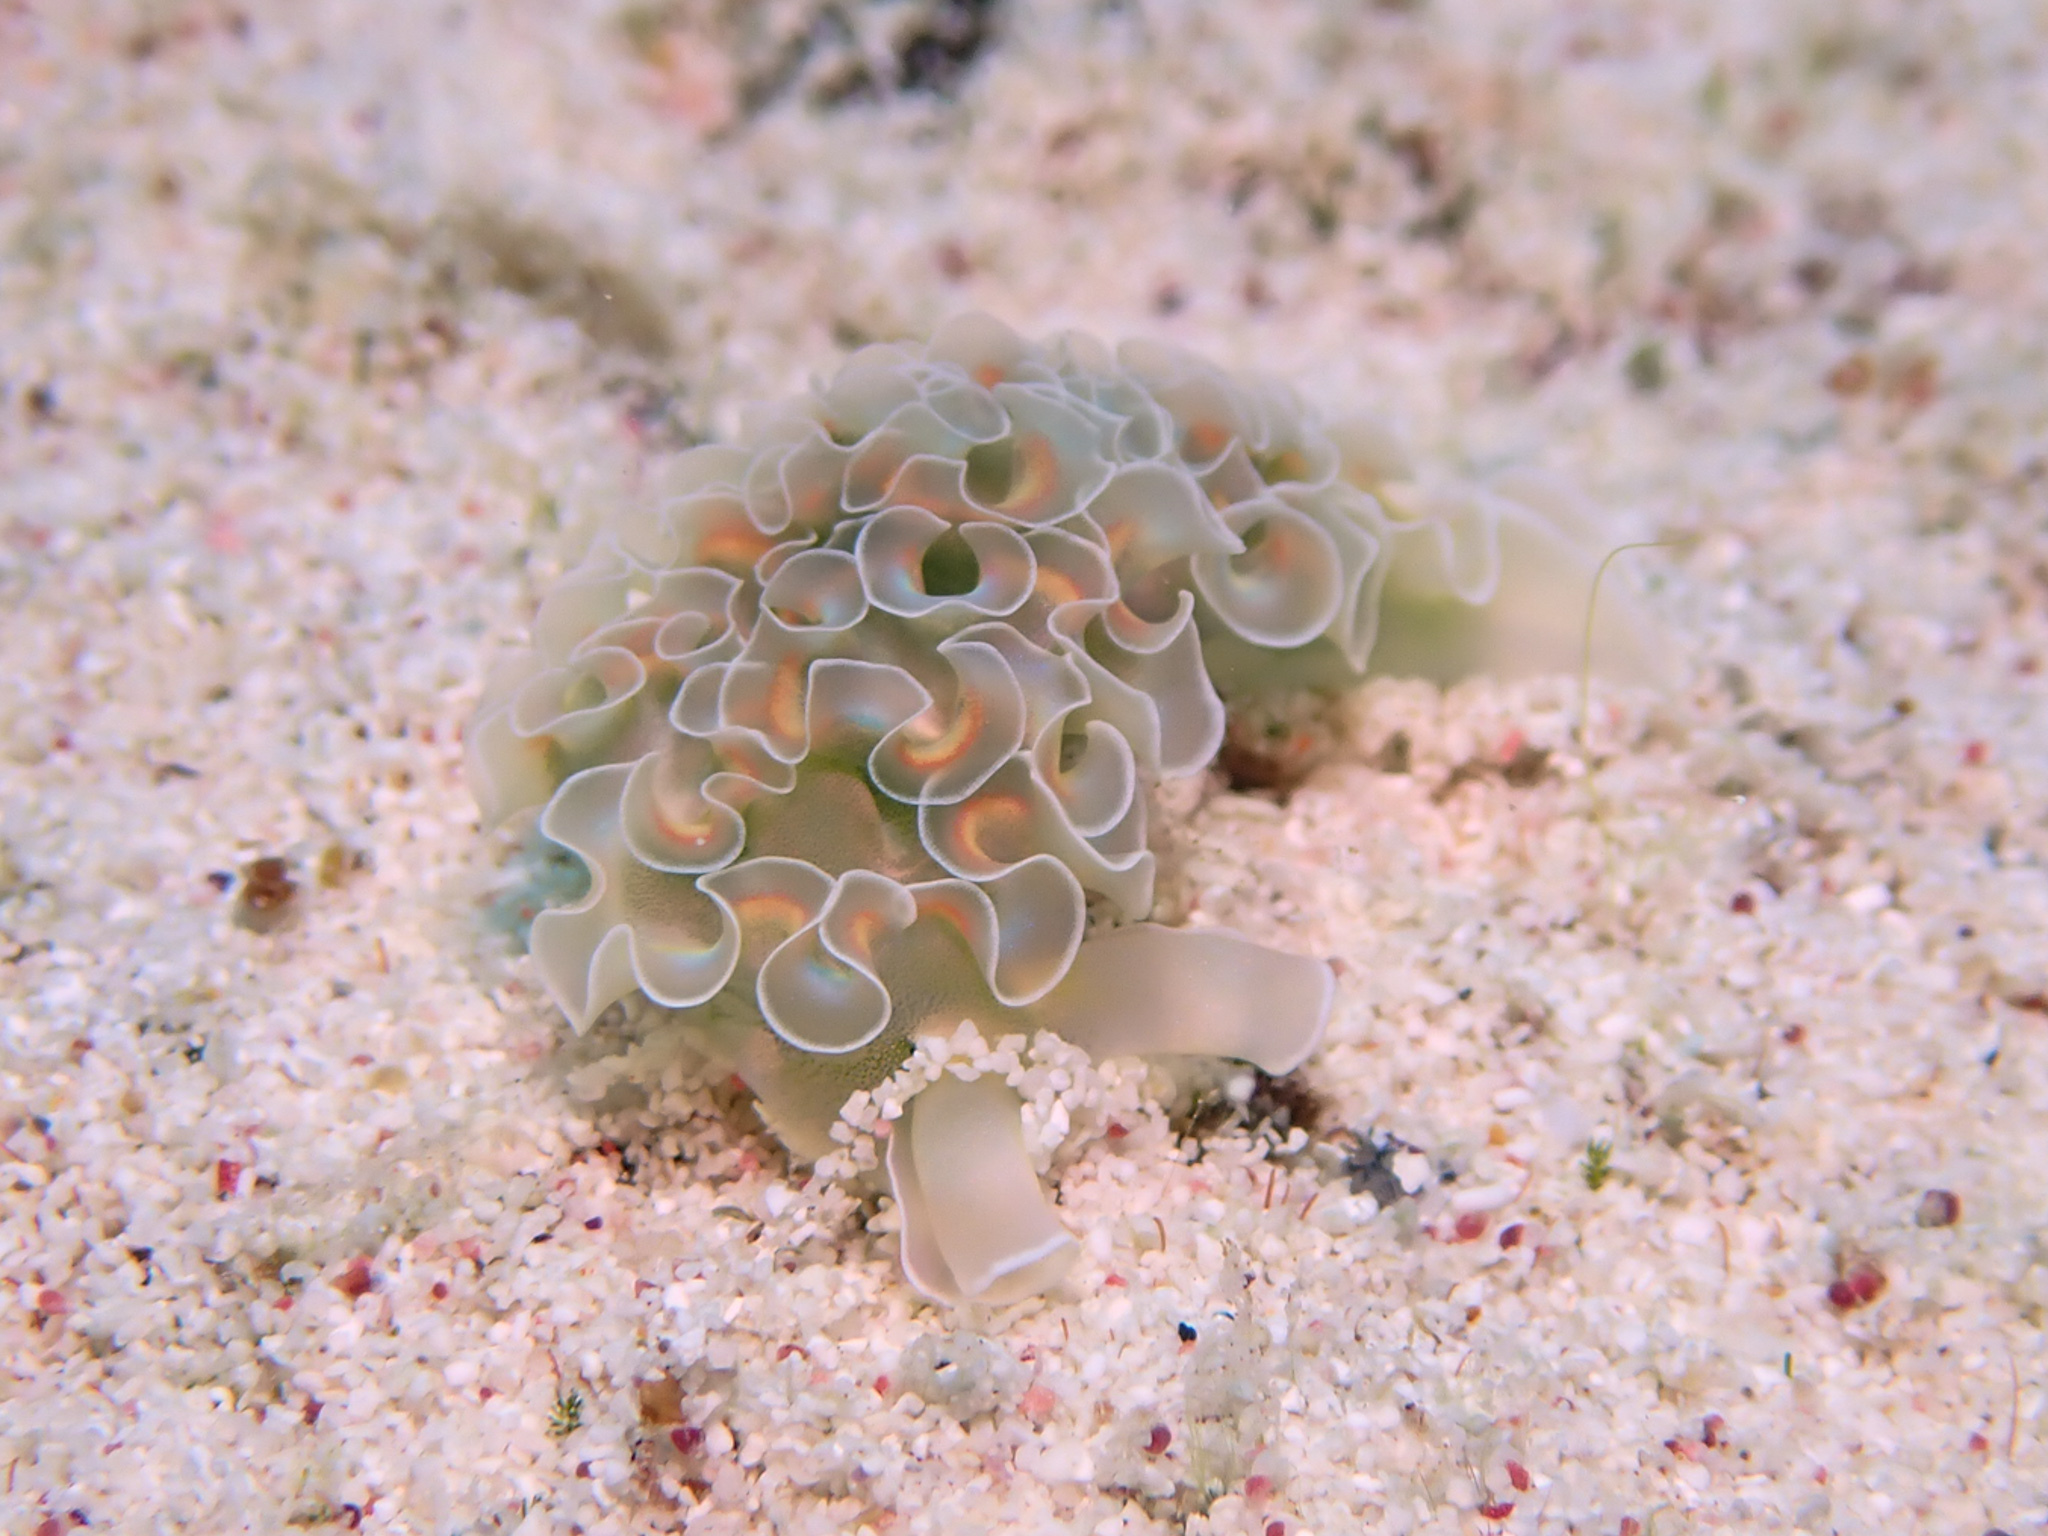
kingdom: Animalia
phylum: Mollusca
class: Gastropoda
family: Plakobranchidae
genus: Elysia
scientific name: Elysia crispata
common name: Lettuce slug
